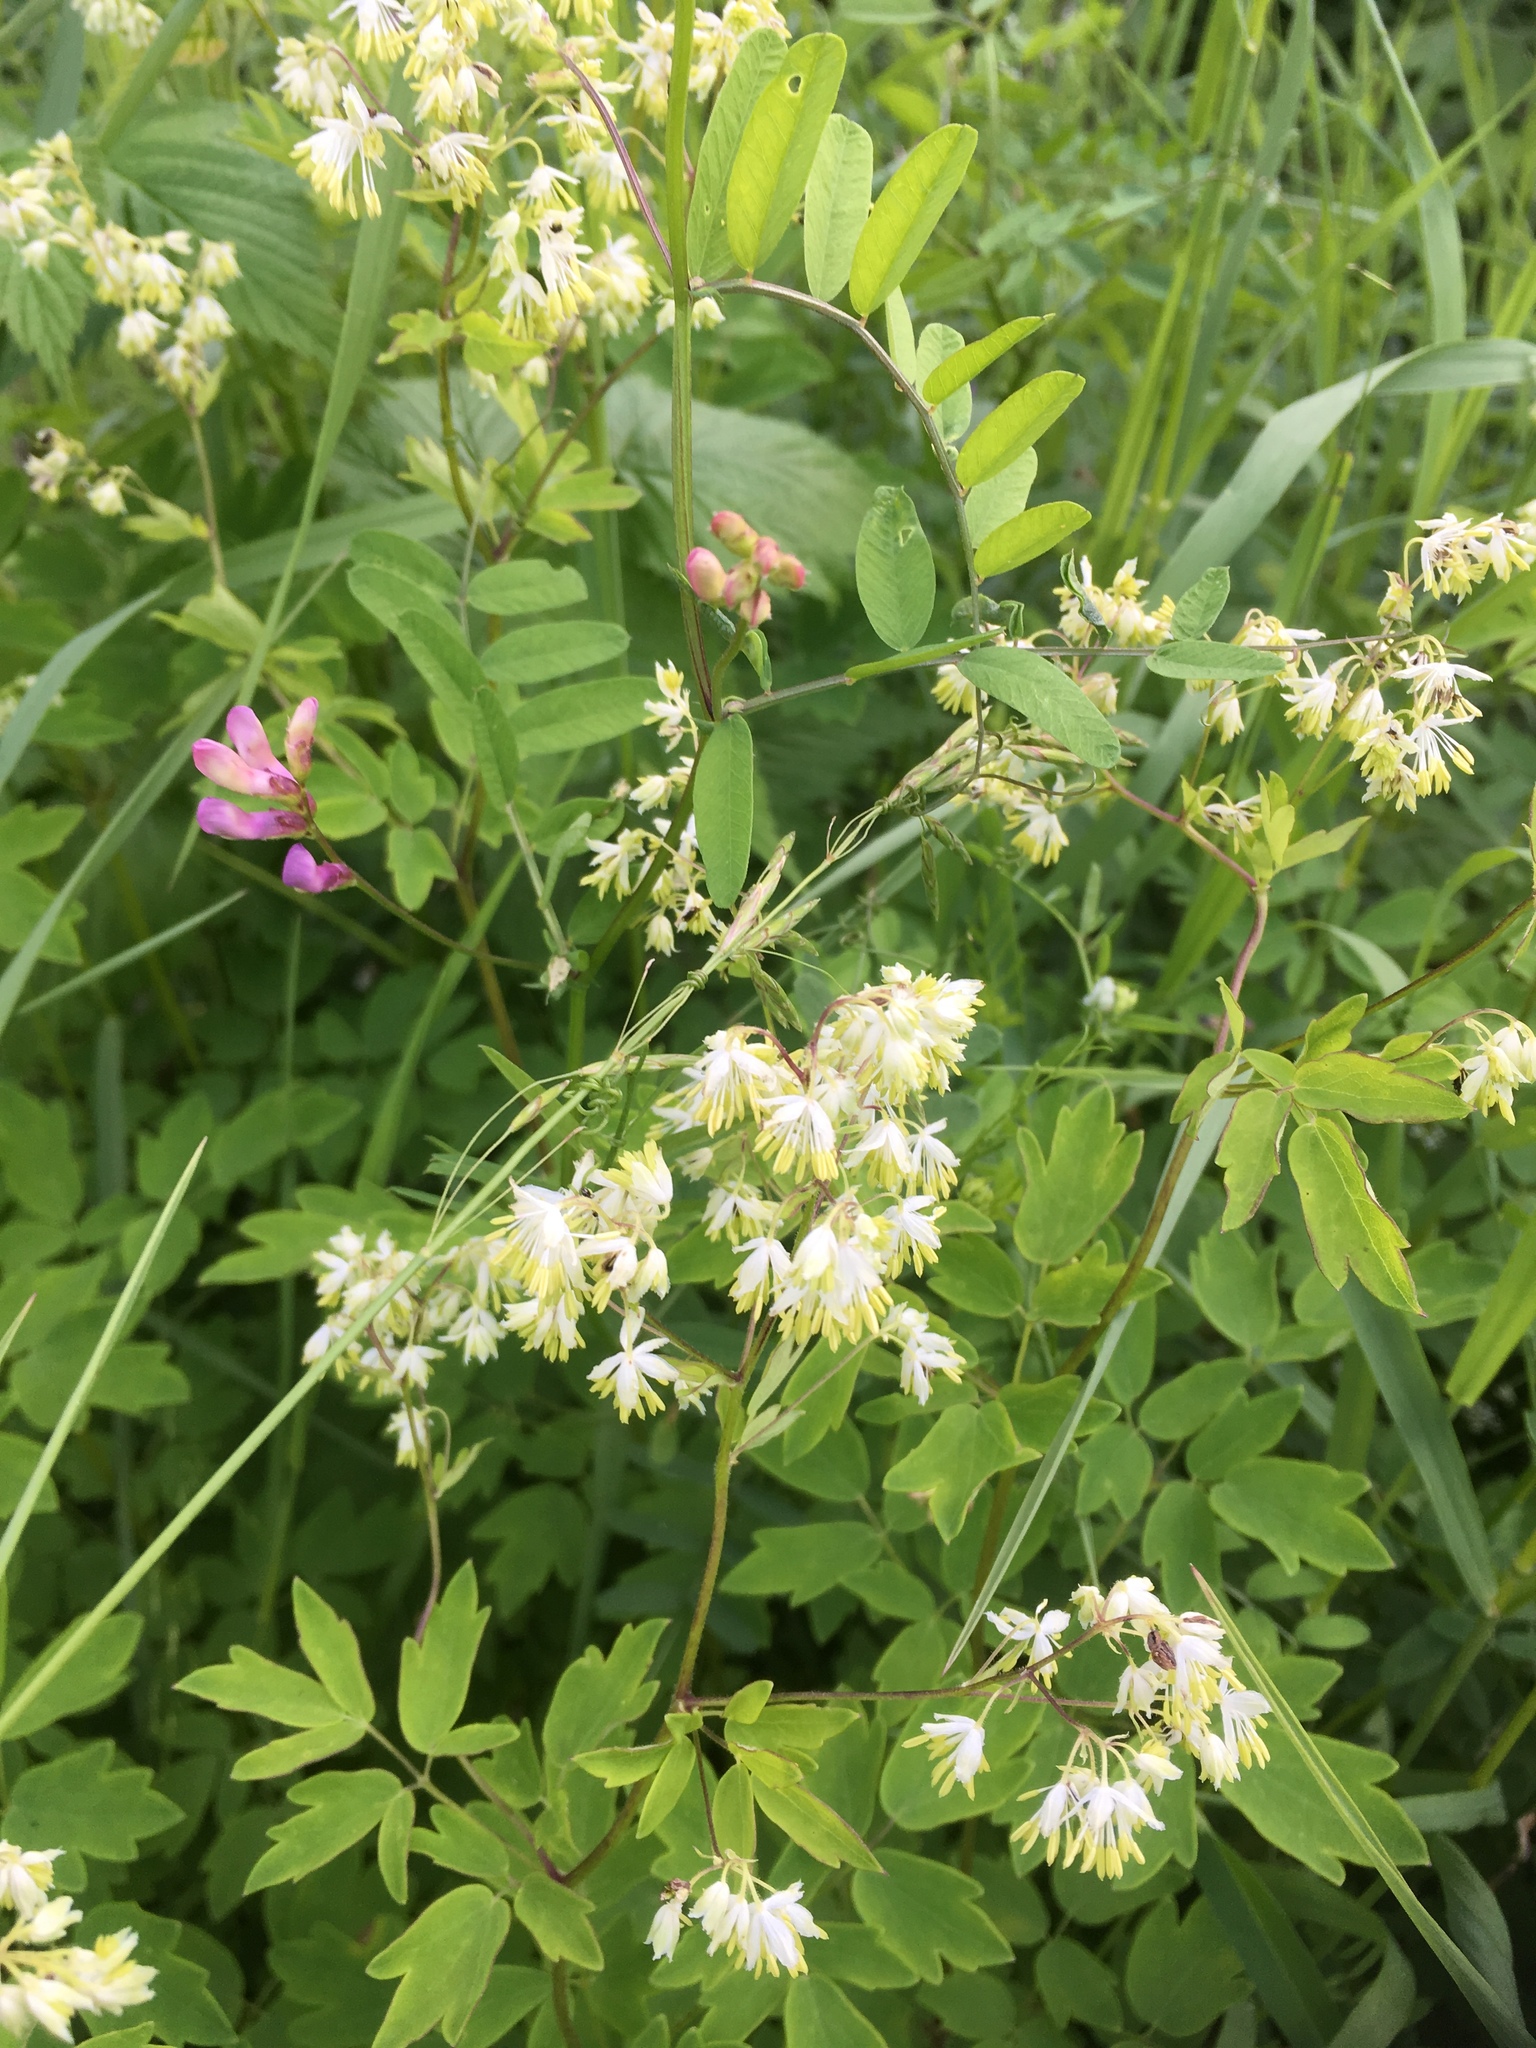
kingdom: Plantae
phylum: Tracheophyta
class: Magnoliopsida
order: Ranunculales
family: Ranunculaceae
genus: Thalictrum
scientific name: Thalictrum dasycarpum
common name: Purple meadow-rue
